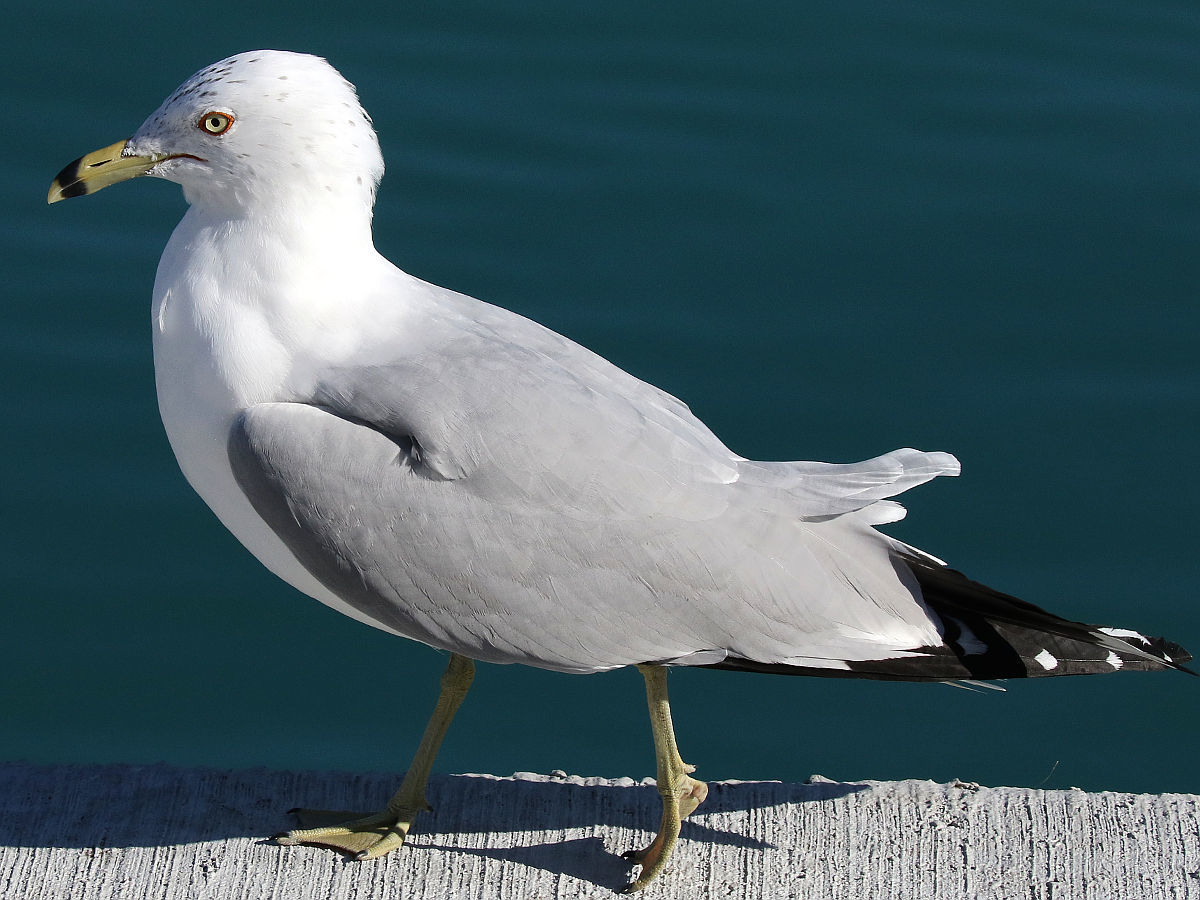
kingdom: Animalia
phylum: Chordata
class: Aves
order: Charadriiformes
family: Laridae
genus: Larus
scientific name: Larus delawarensis
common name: Ring-billed gull
